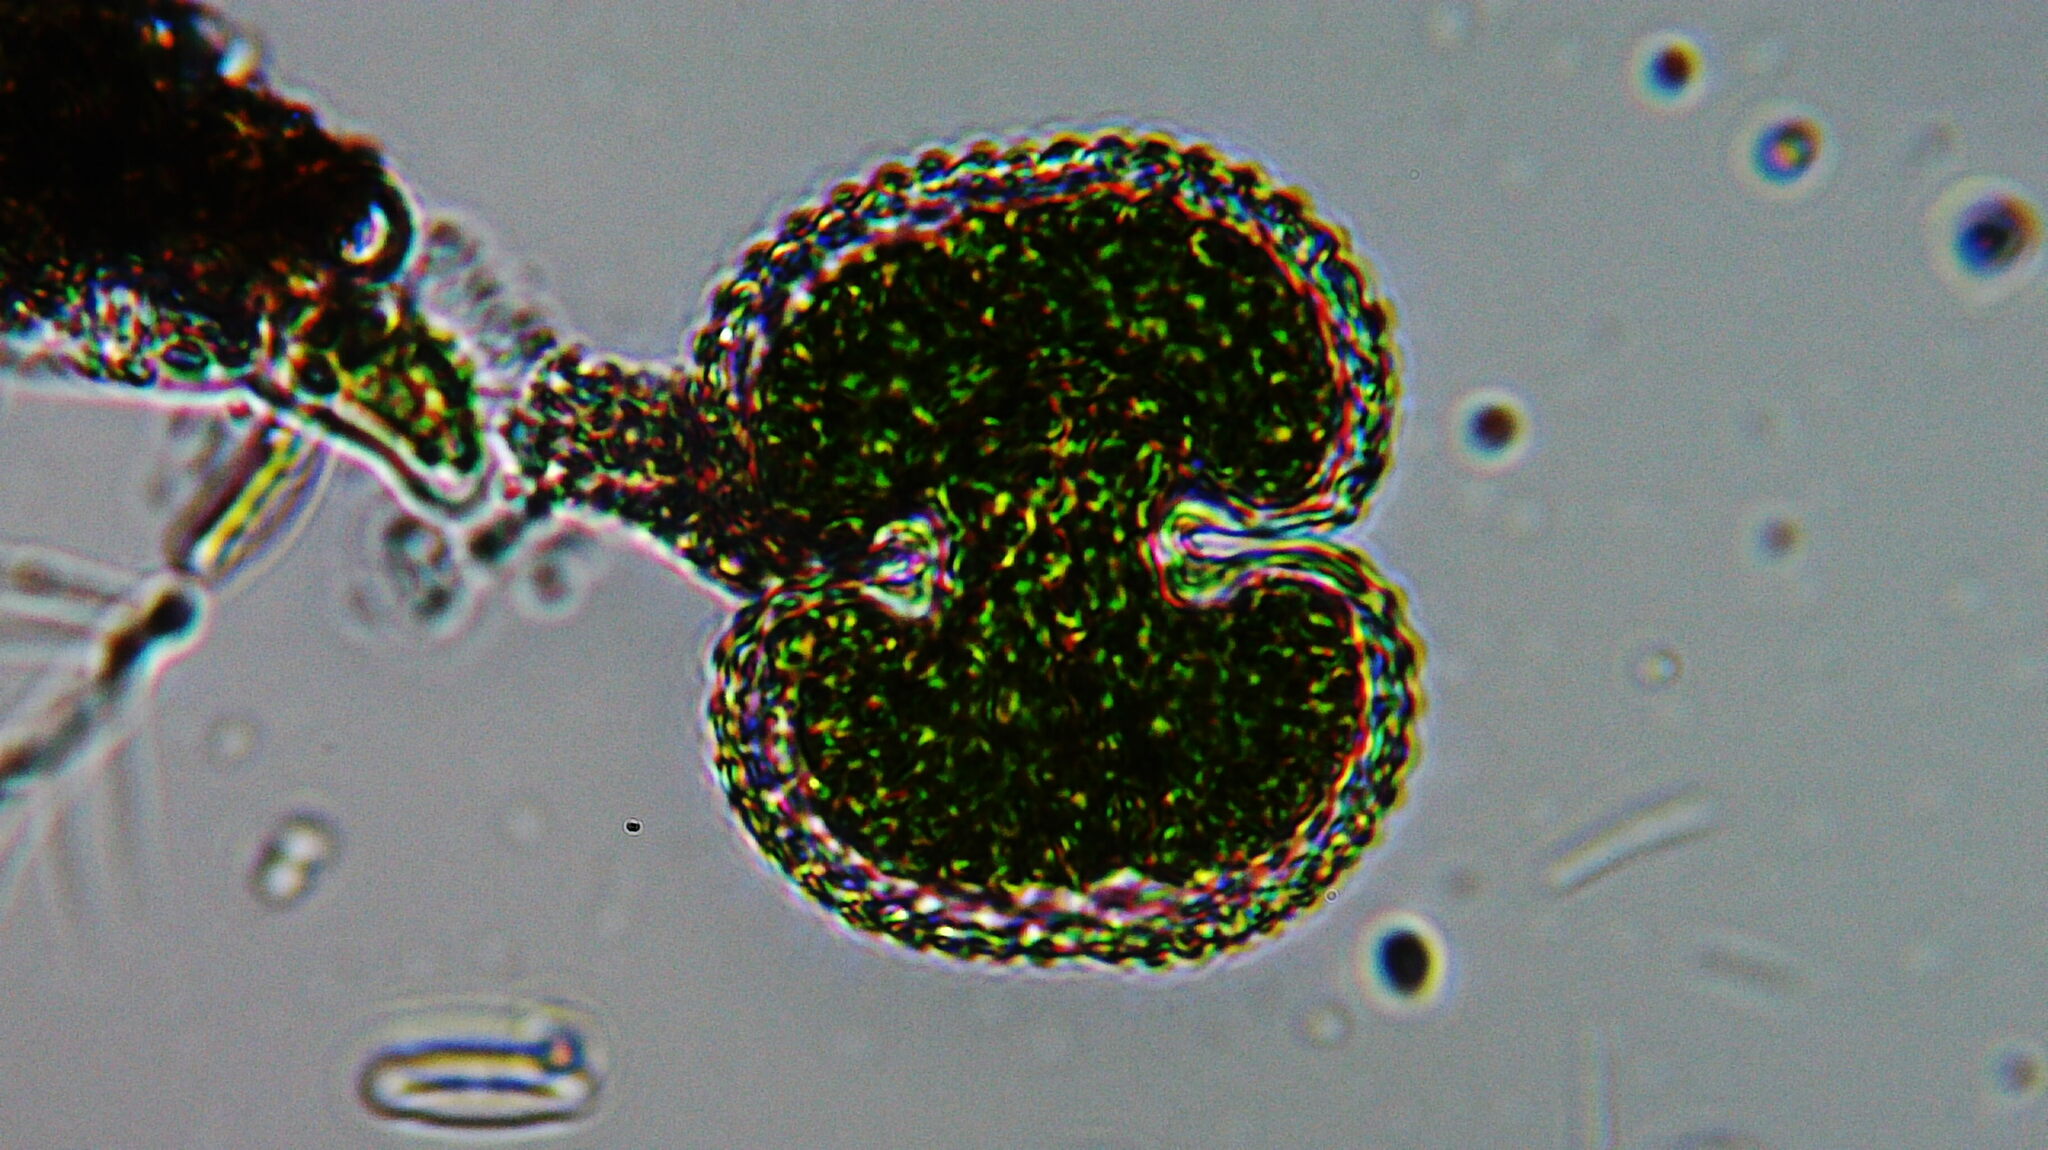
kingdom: Plantae
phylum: Charophyta
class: Zygnematophyceae
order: Zygnematales
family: Desmidiaceae
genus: Cosmarium
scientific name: Cosmarium
